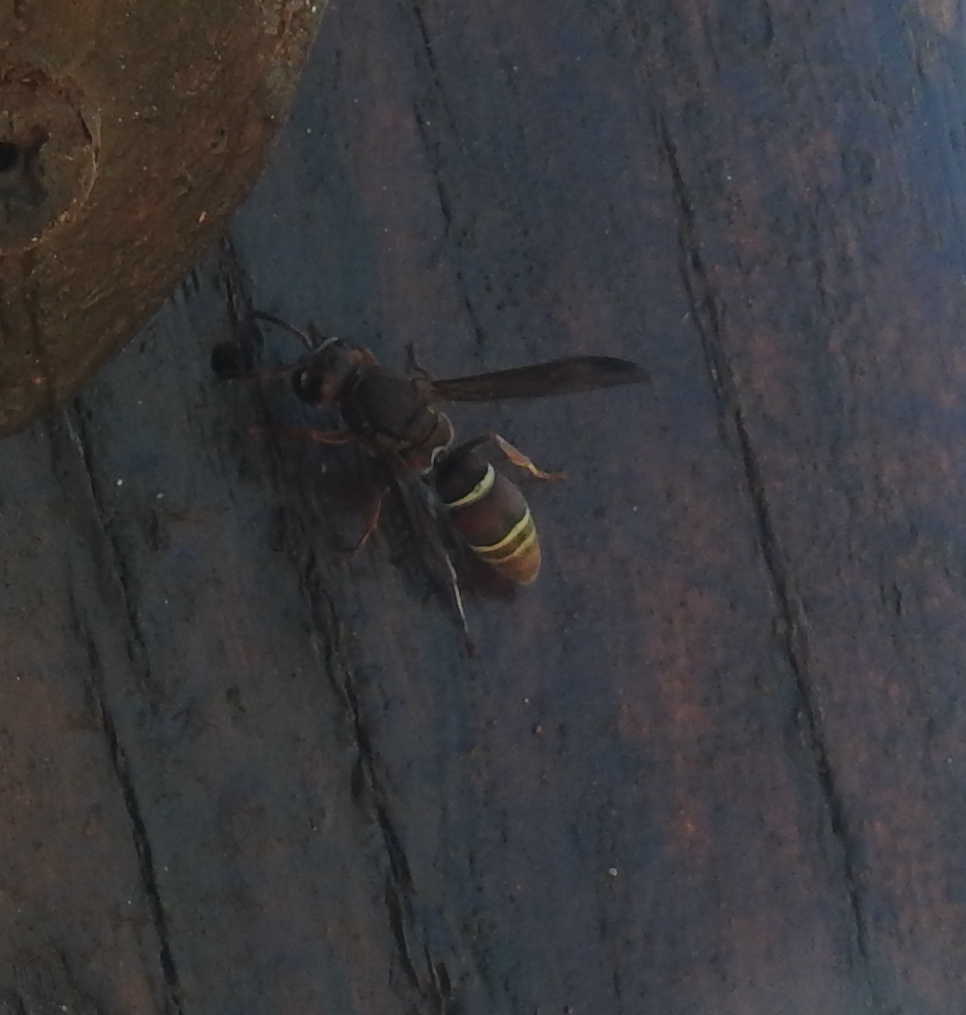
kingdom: Animalia
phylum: Arthropoda
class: Insecta
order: Hymenoptera
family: Eumenidae
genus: Antodynerus
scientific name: Antodynerus
